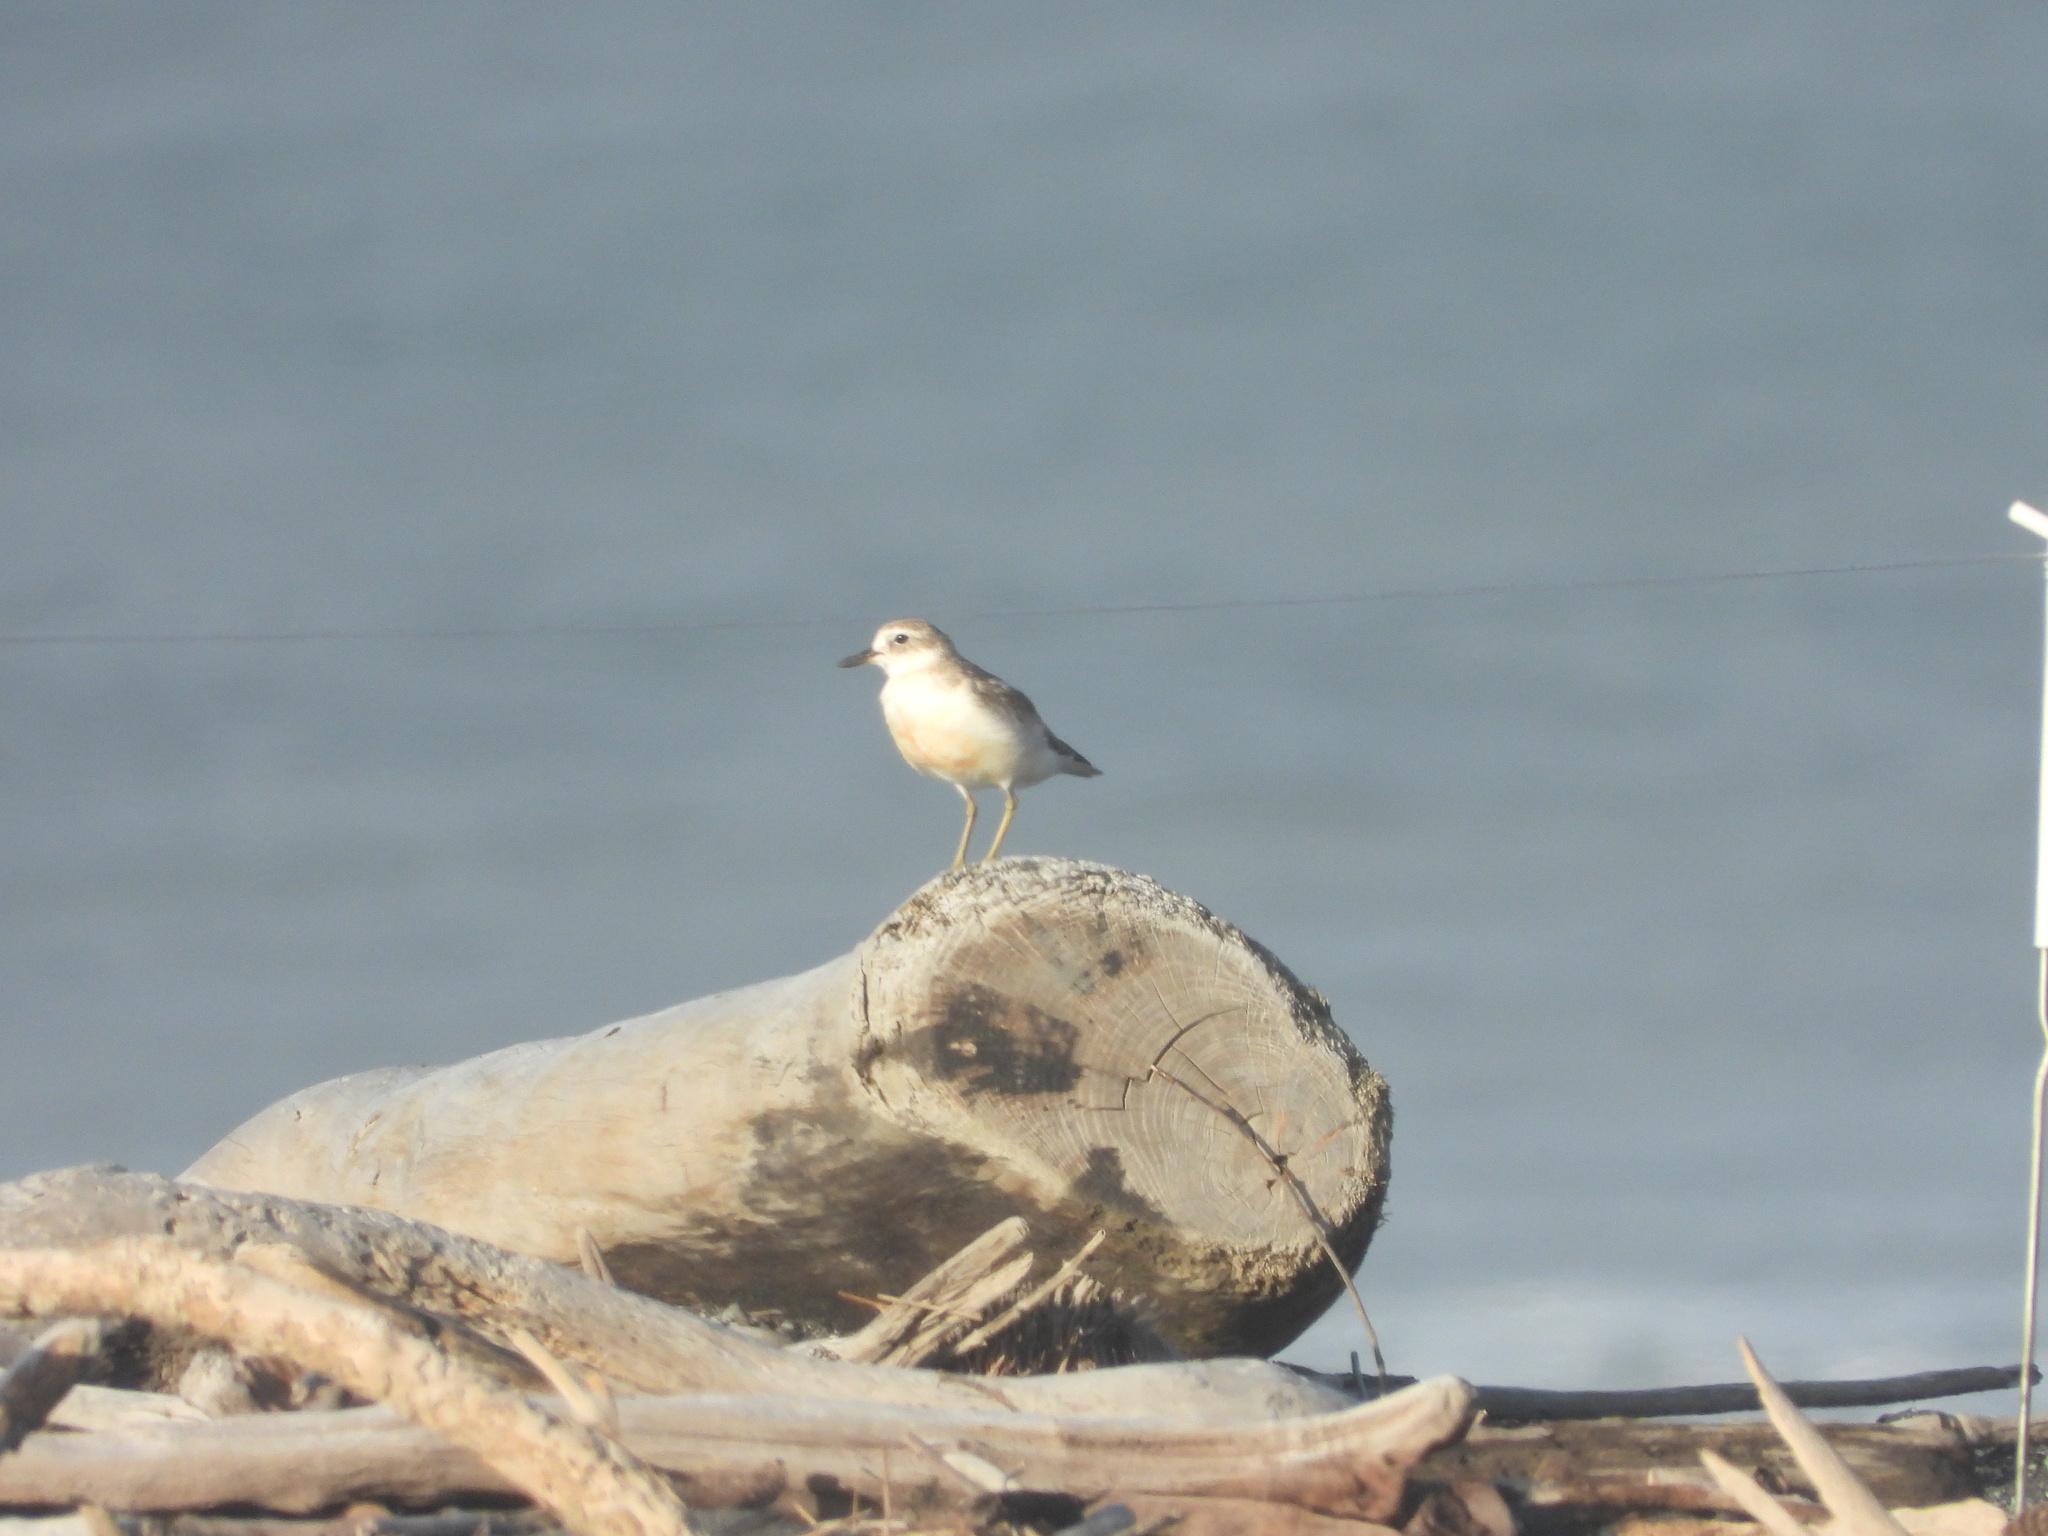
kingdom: Animalia
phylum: Chordata
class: Aves
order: Charadriiformes
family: Charadriidae
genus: Anarhynchus
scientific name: Anarhynchus
